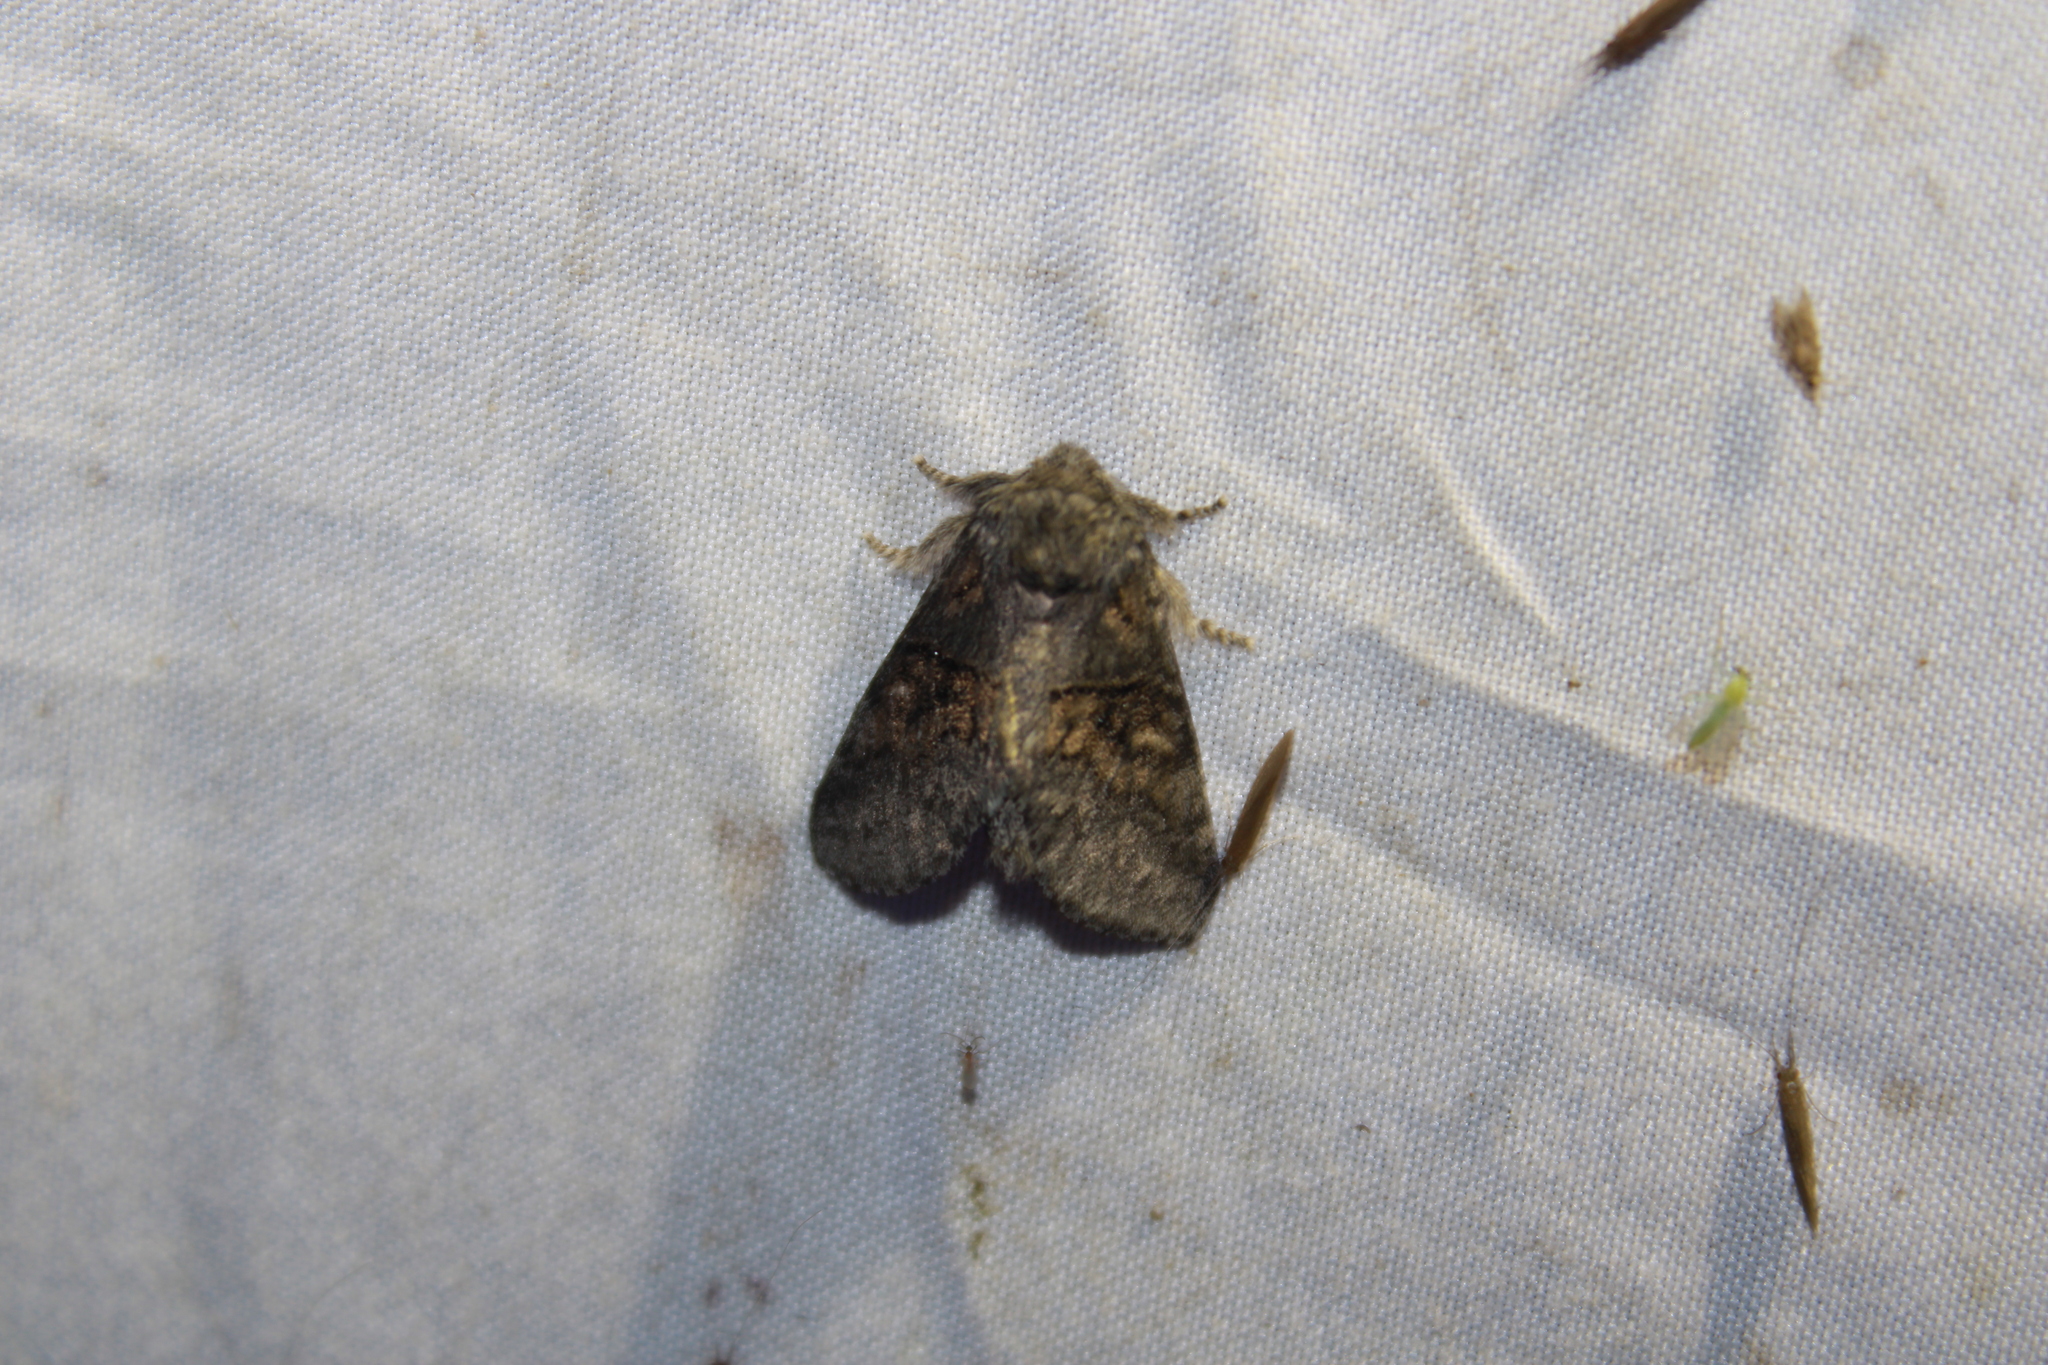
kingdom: Animalia
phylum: Arthropoda
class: Insecta
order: Lepidoptera
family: Notodontidae
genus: Gluphisia
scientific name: Gluphisia septentrionis
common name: Common gluphisia
